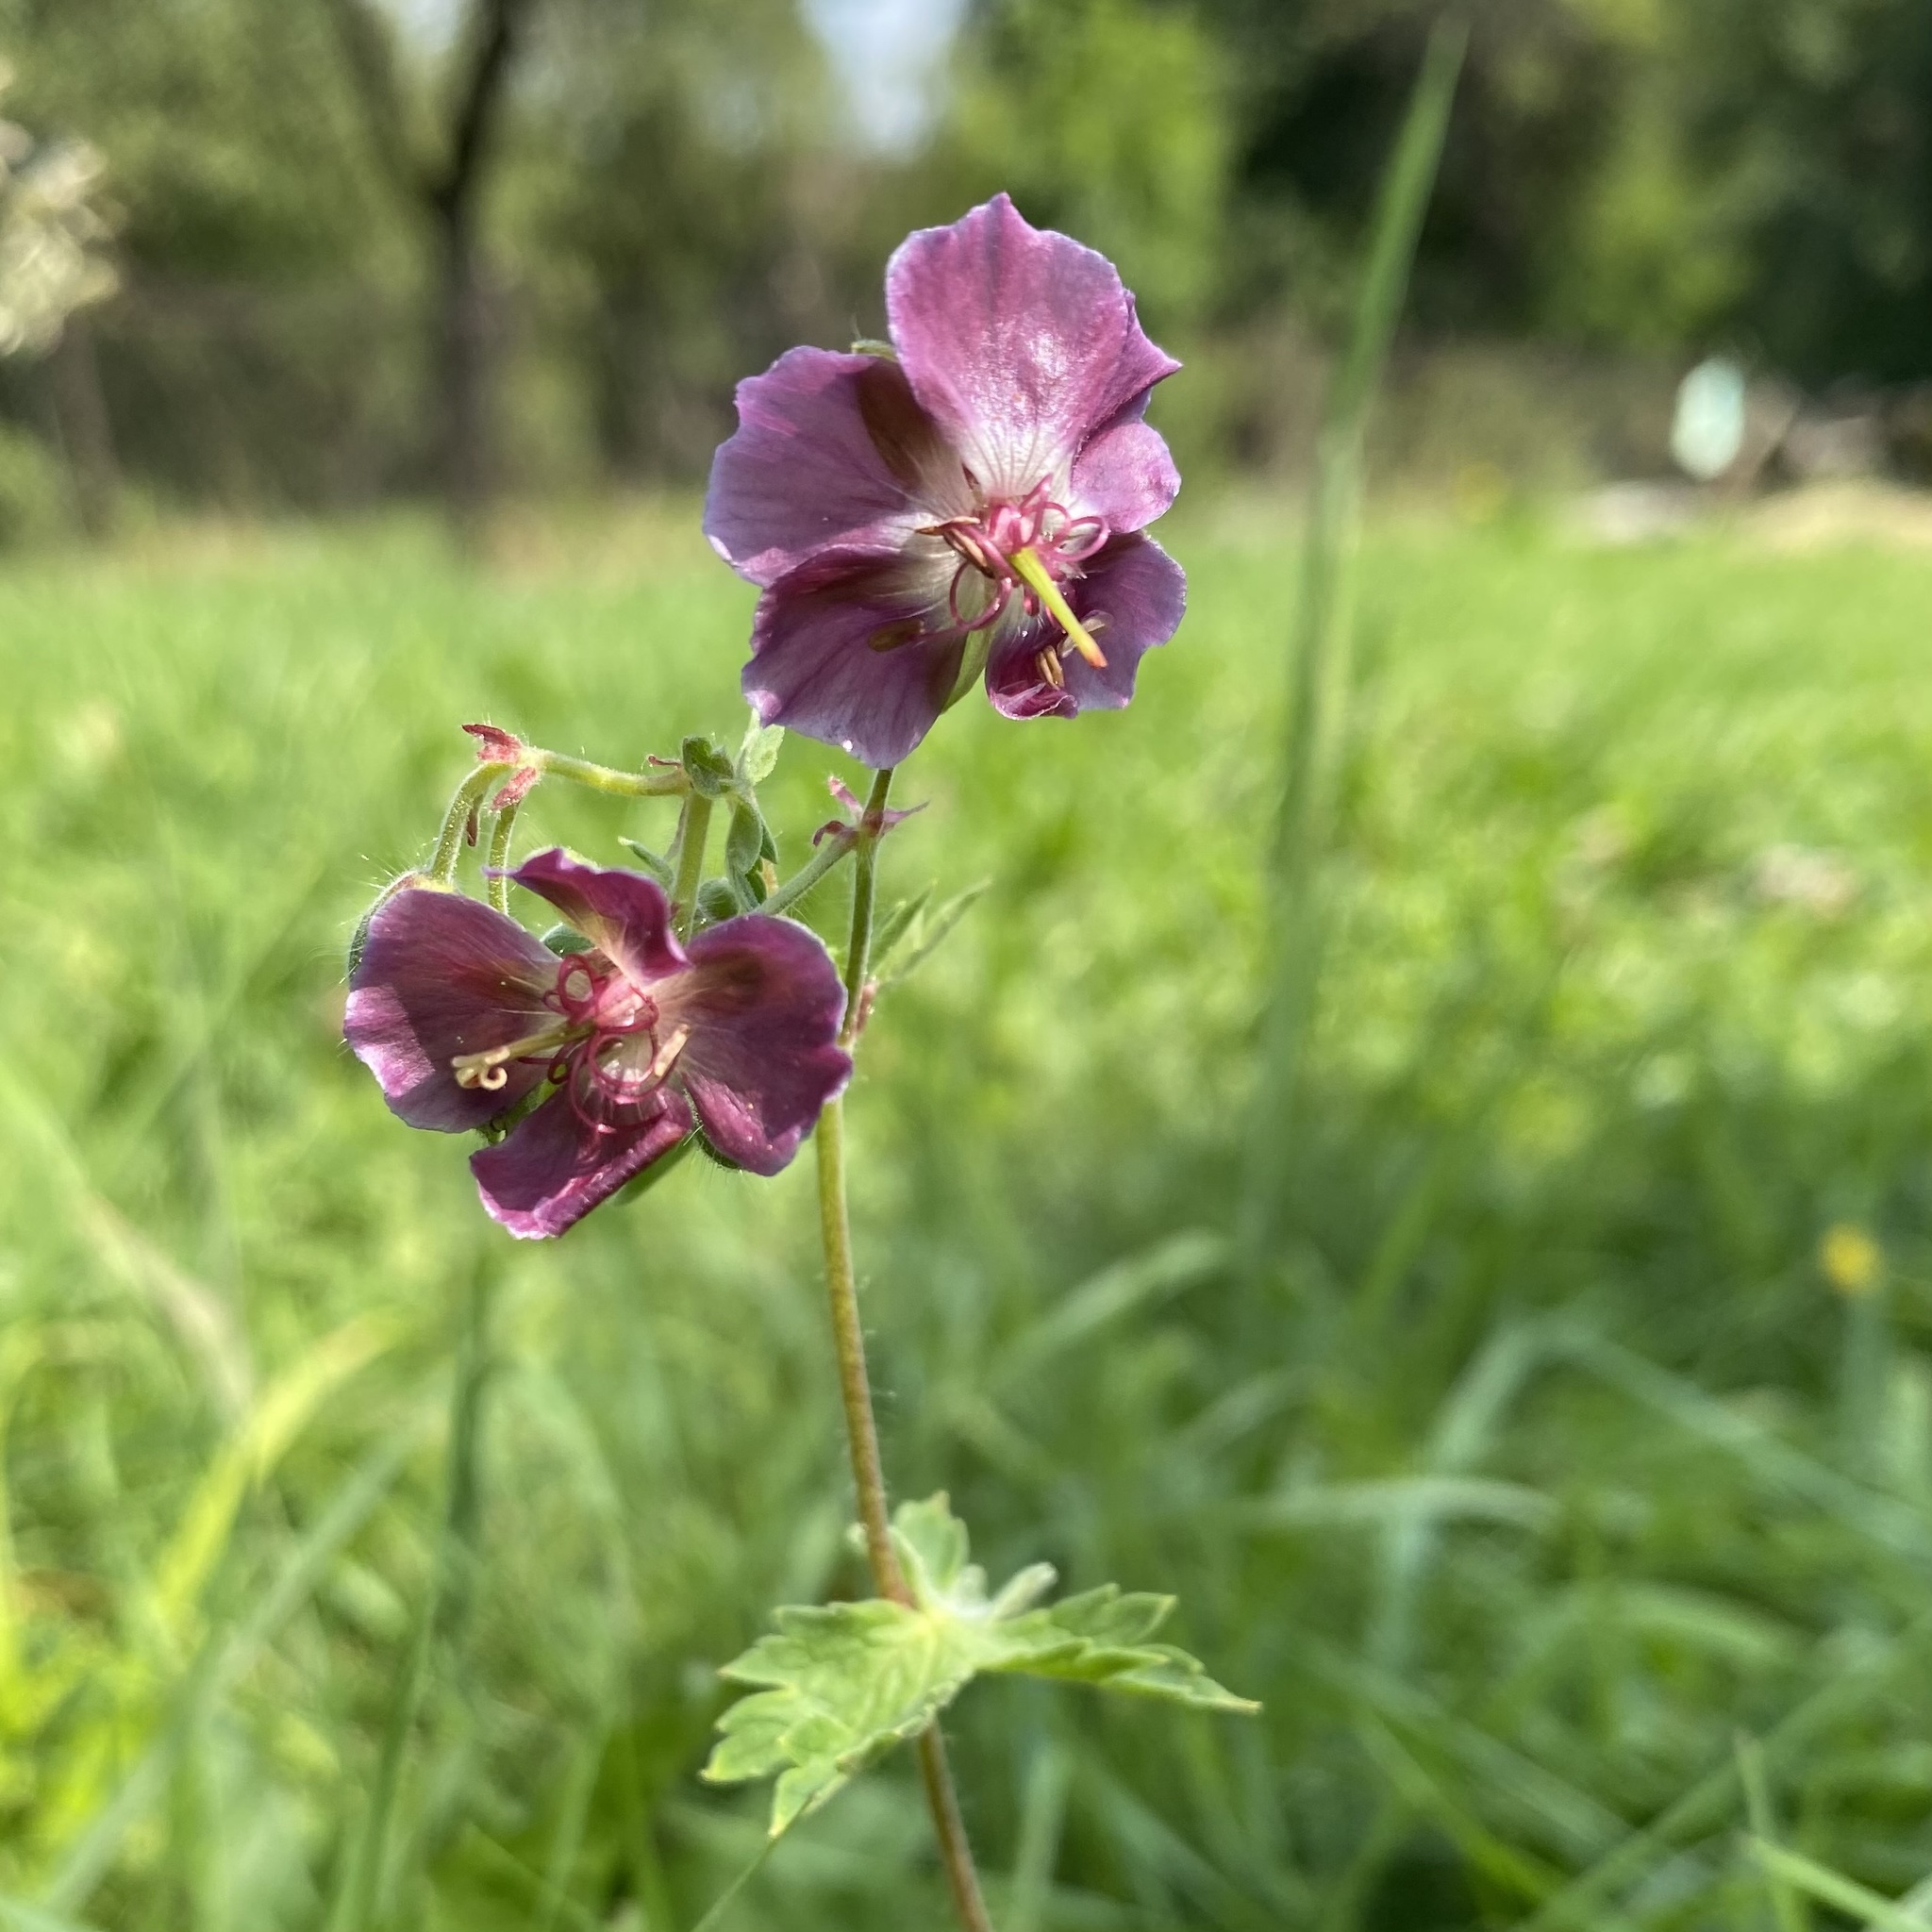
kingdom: Plantae
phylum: Tracheophyta
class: Magnoliopsida
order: Geraniales
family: Geraniaceae
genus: Geranium
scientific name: Geranium phaeum
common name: Dusky crane's-bill
